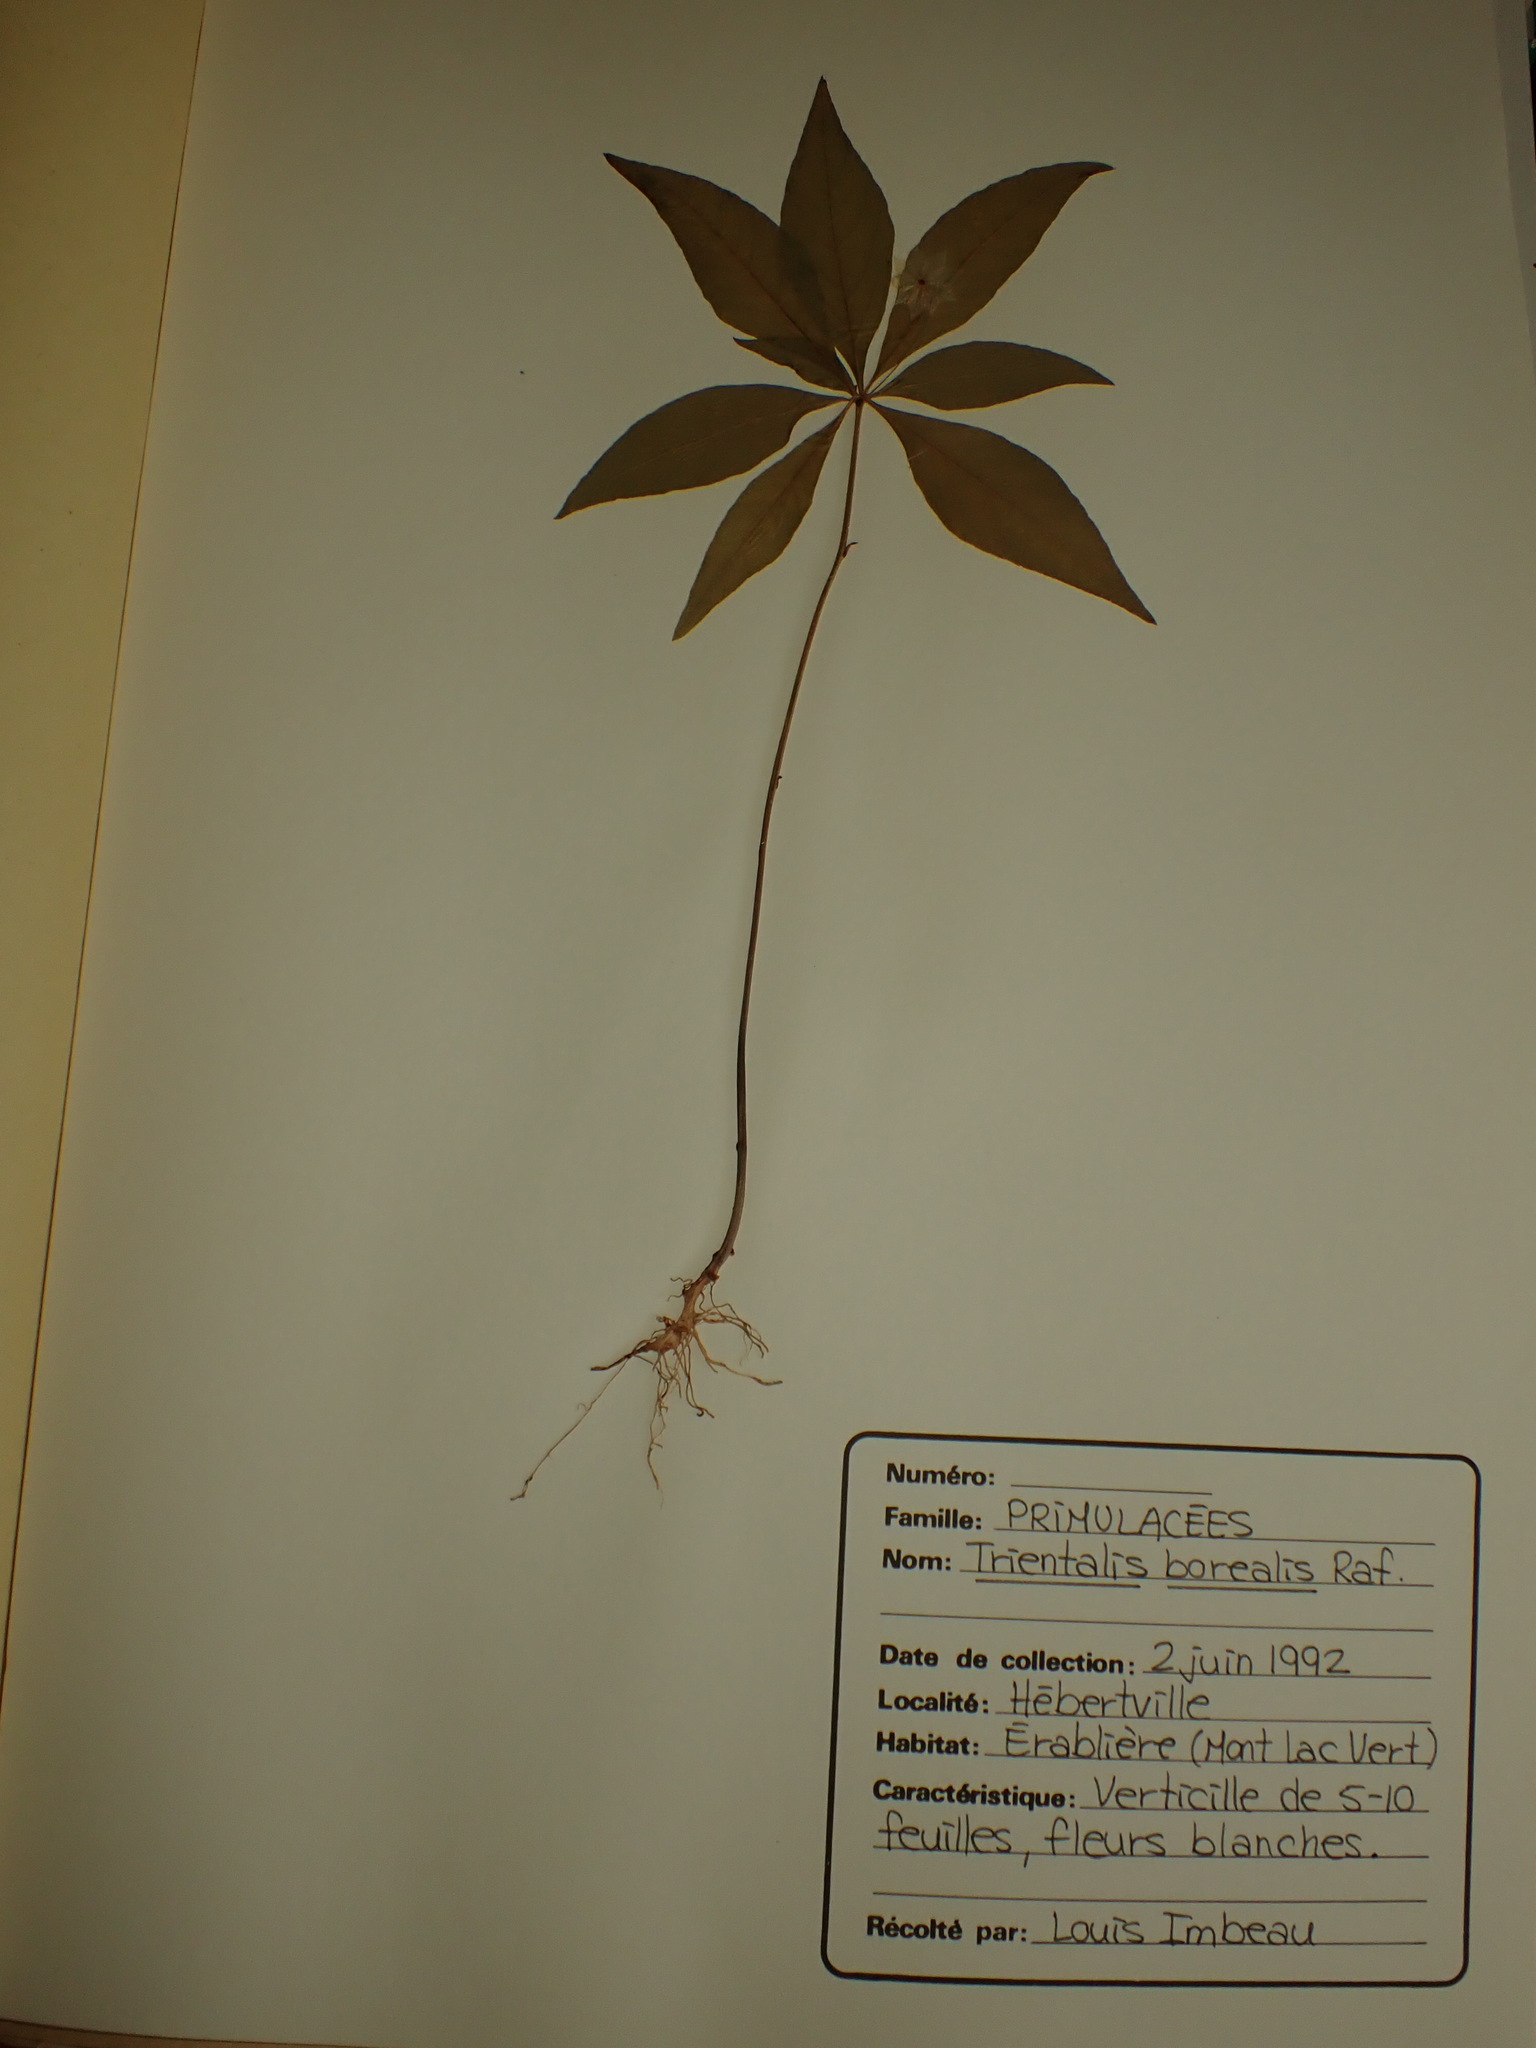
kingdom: Plantae
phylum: Tracheophyta
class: Magnoliopsida
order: Ericales
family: Primulaceae
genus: Lysimachia
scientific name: Lysimachia borealis
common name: American starflower
